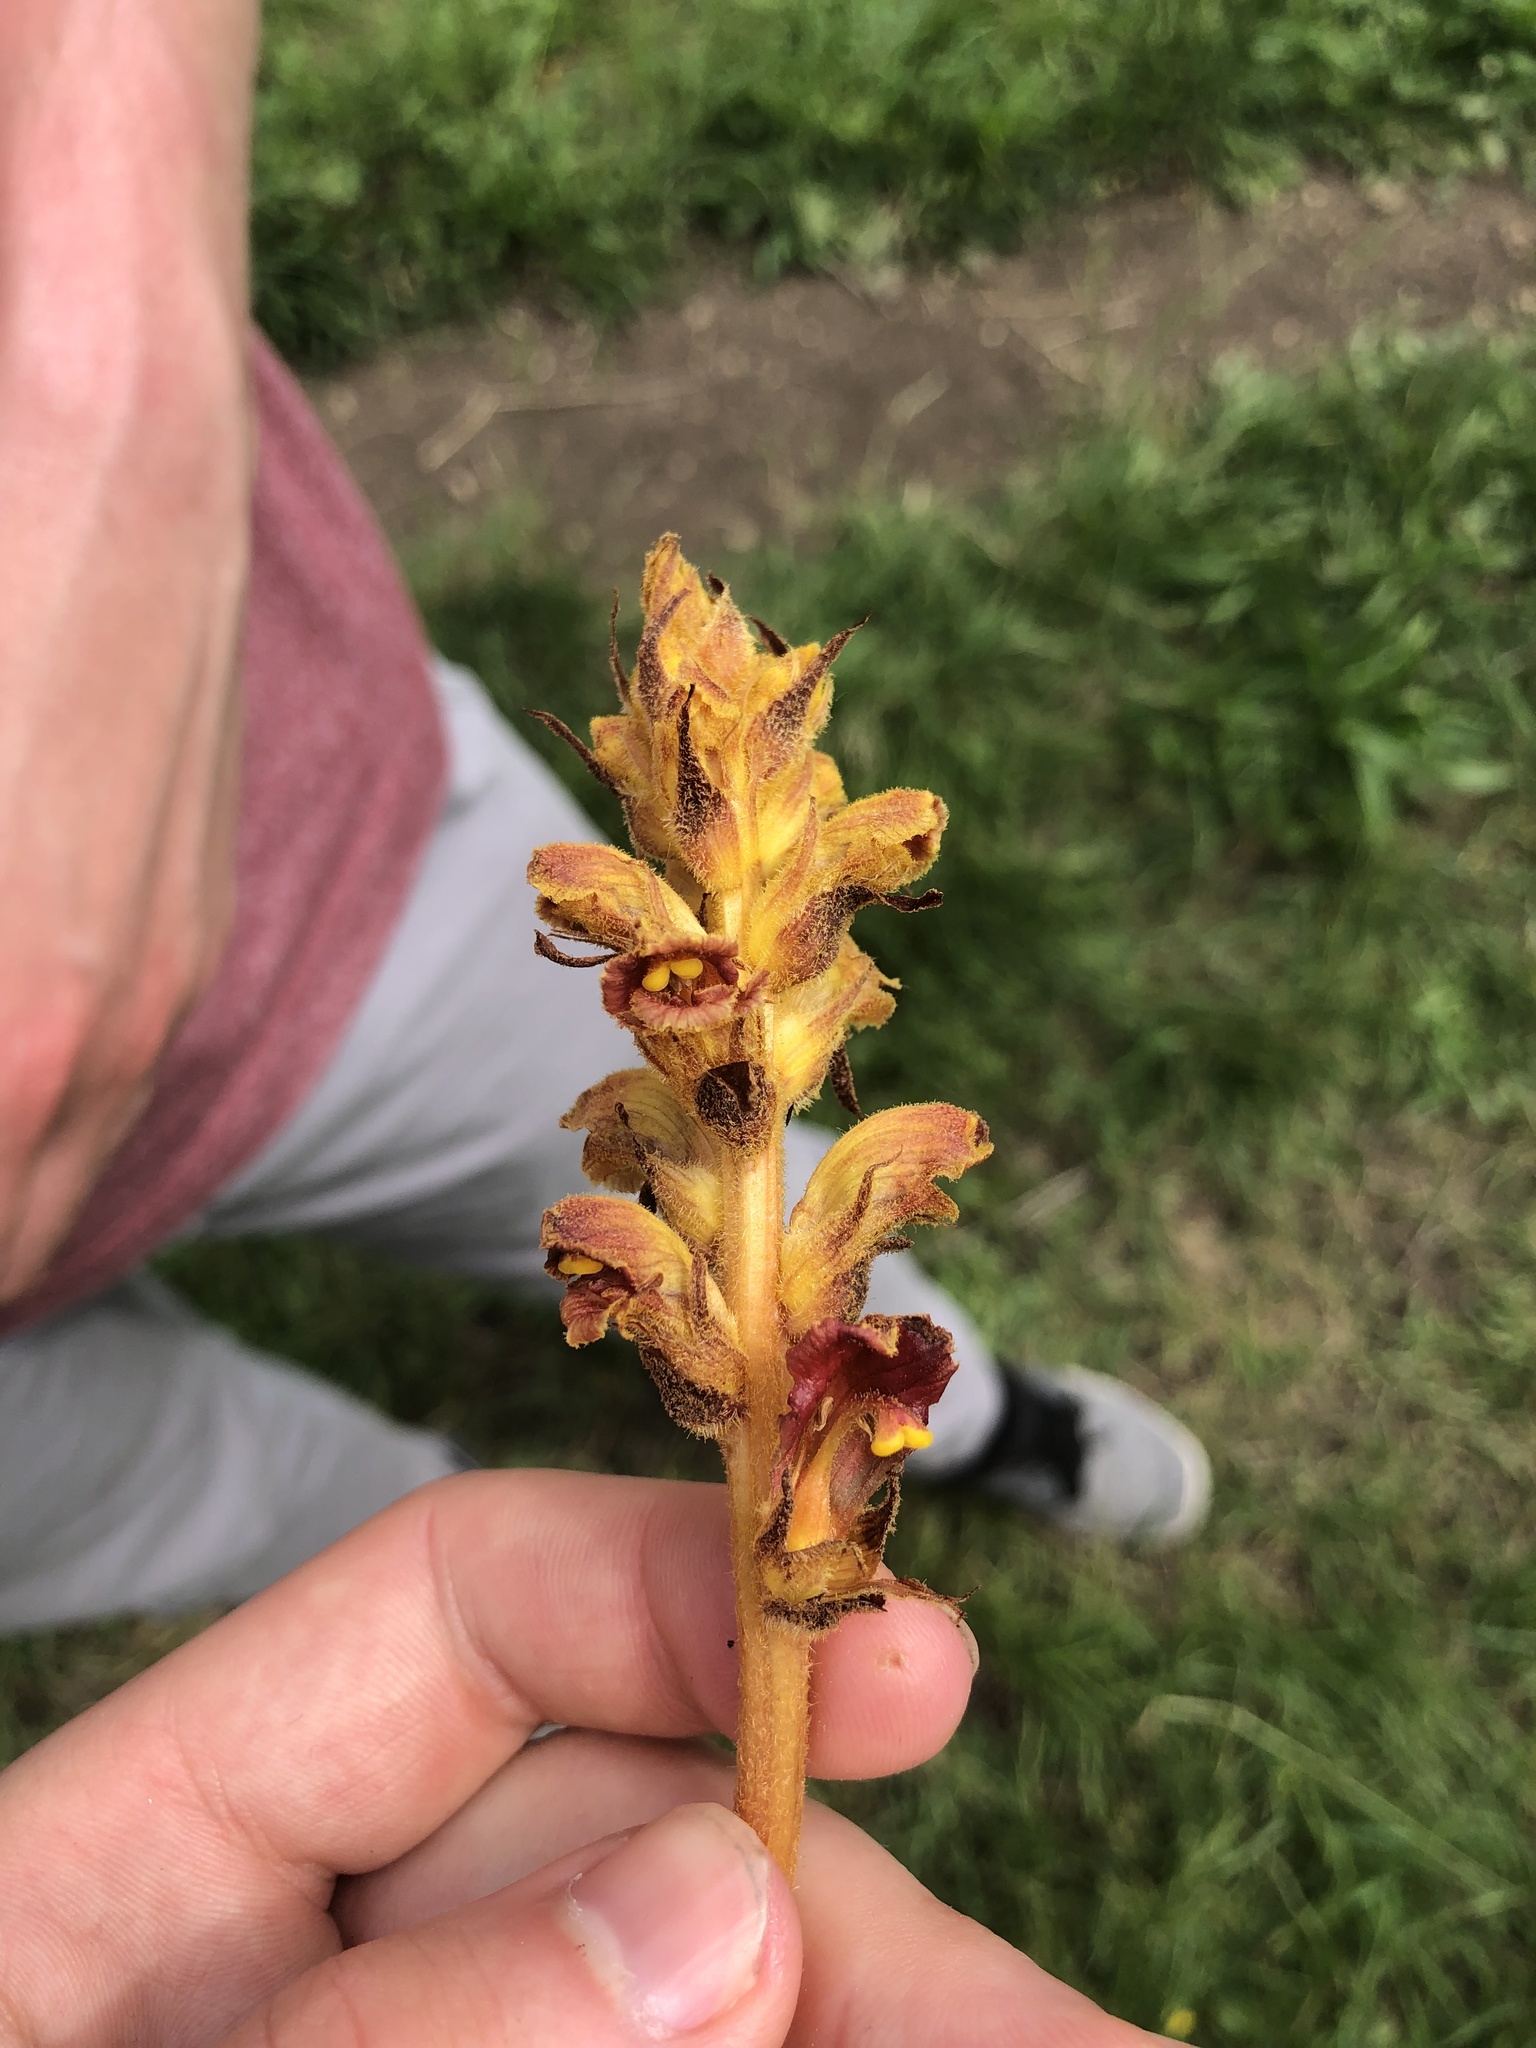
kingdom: Plantae
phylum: Tracheophyta
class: Magnoliopsida
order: Lamiales
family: Orobanchaceae
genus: Orobanche
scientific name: Orobanche gracilis
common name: Slender broomrape
